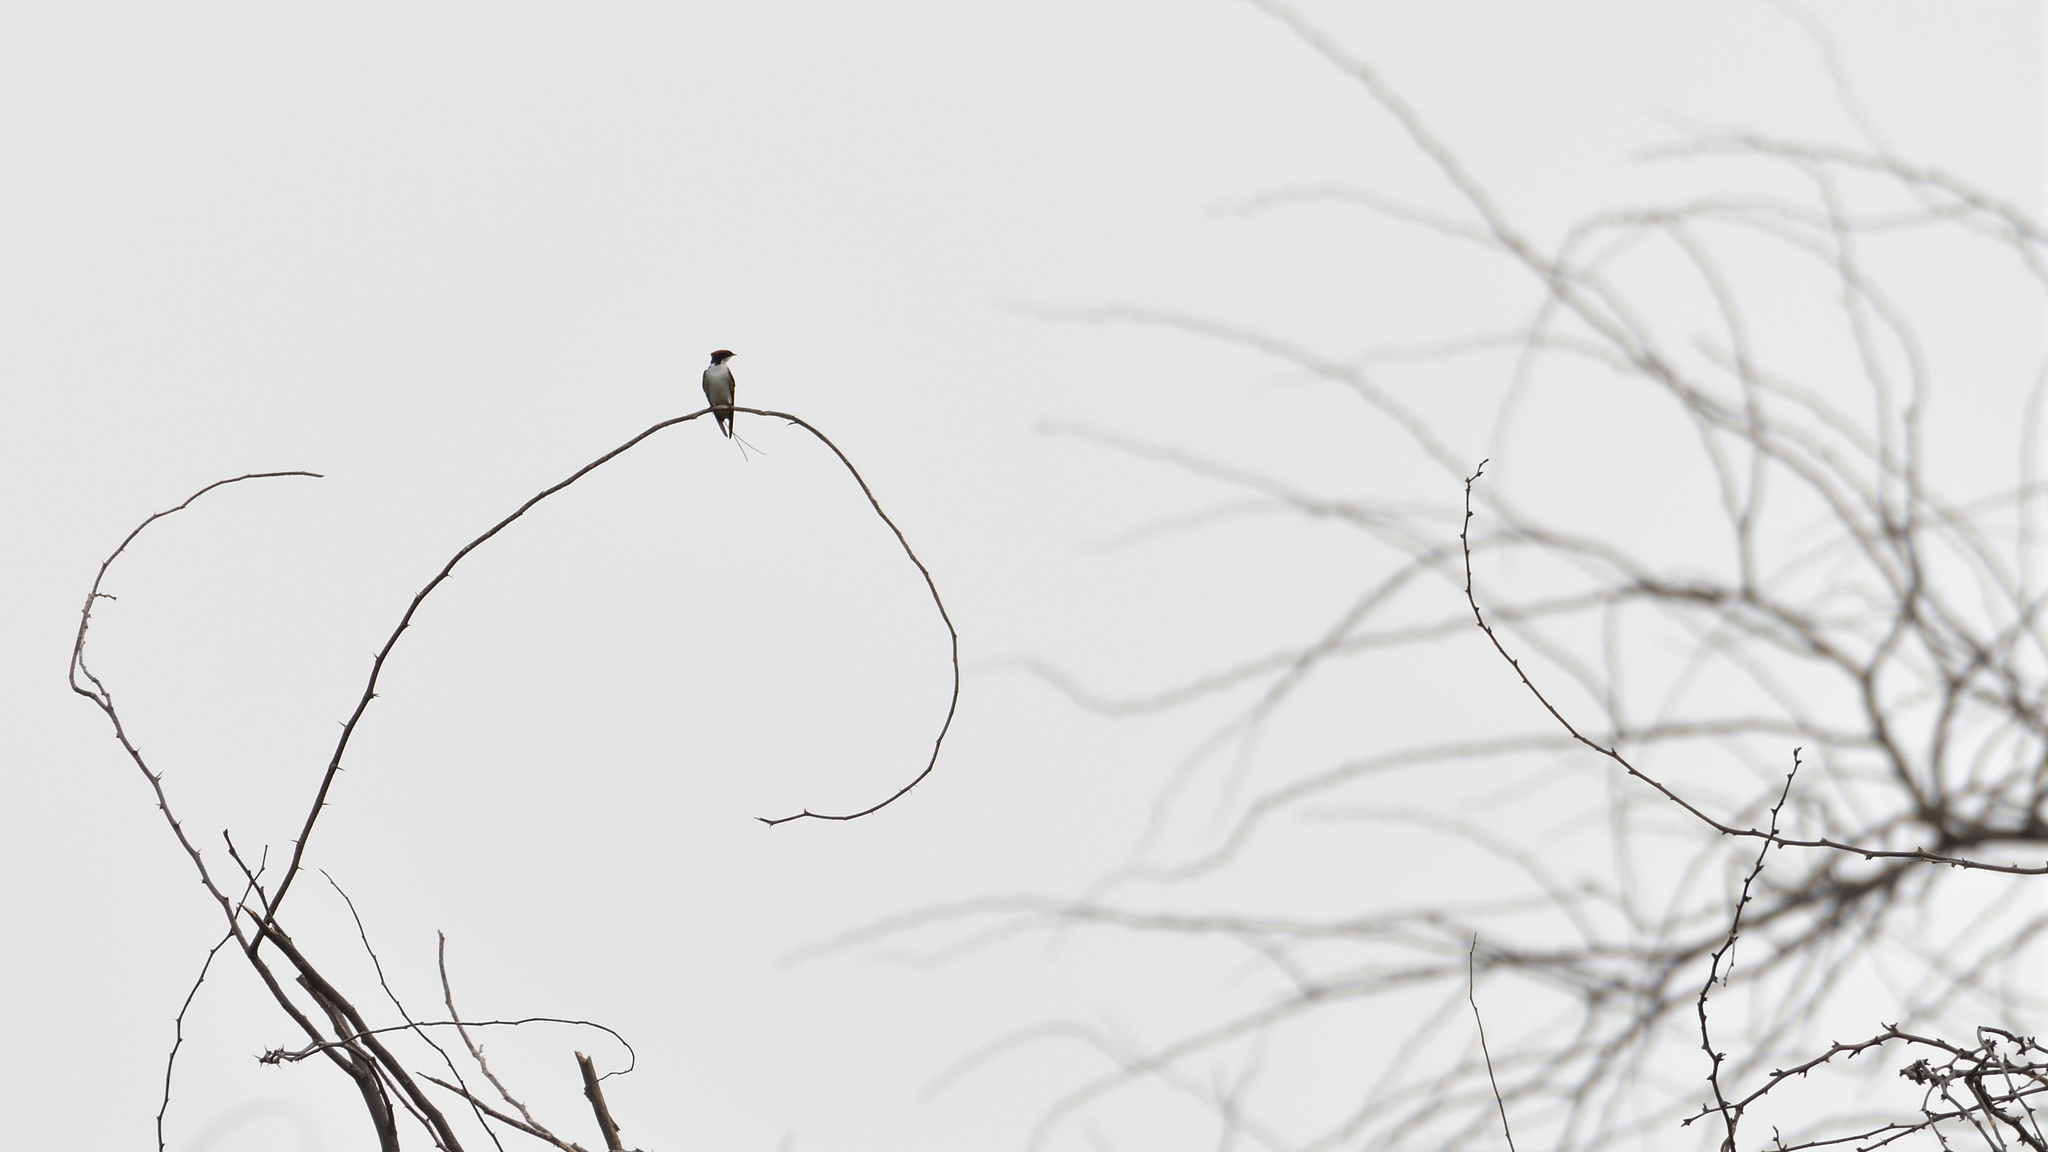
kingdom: Animalia
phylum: Chordata
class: Aves
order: Passeriformes
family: Hirundinidae
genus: Hirundo
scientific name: Hirundo smithii
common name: Wire-tailed swallow
